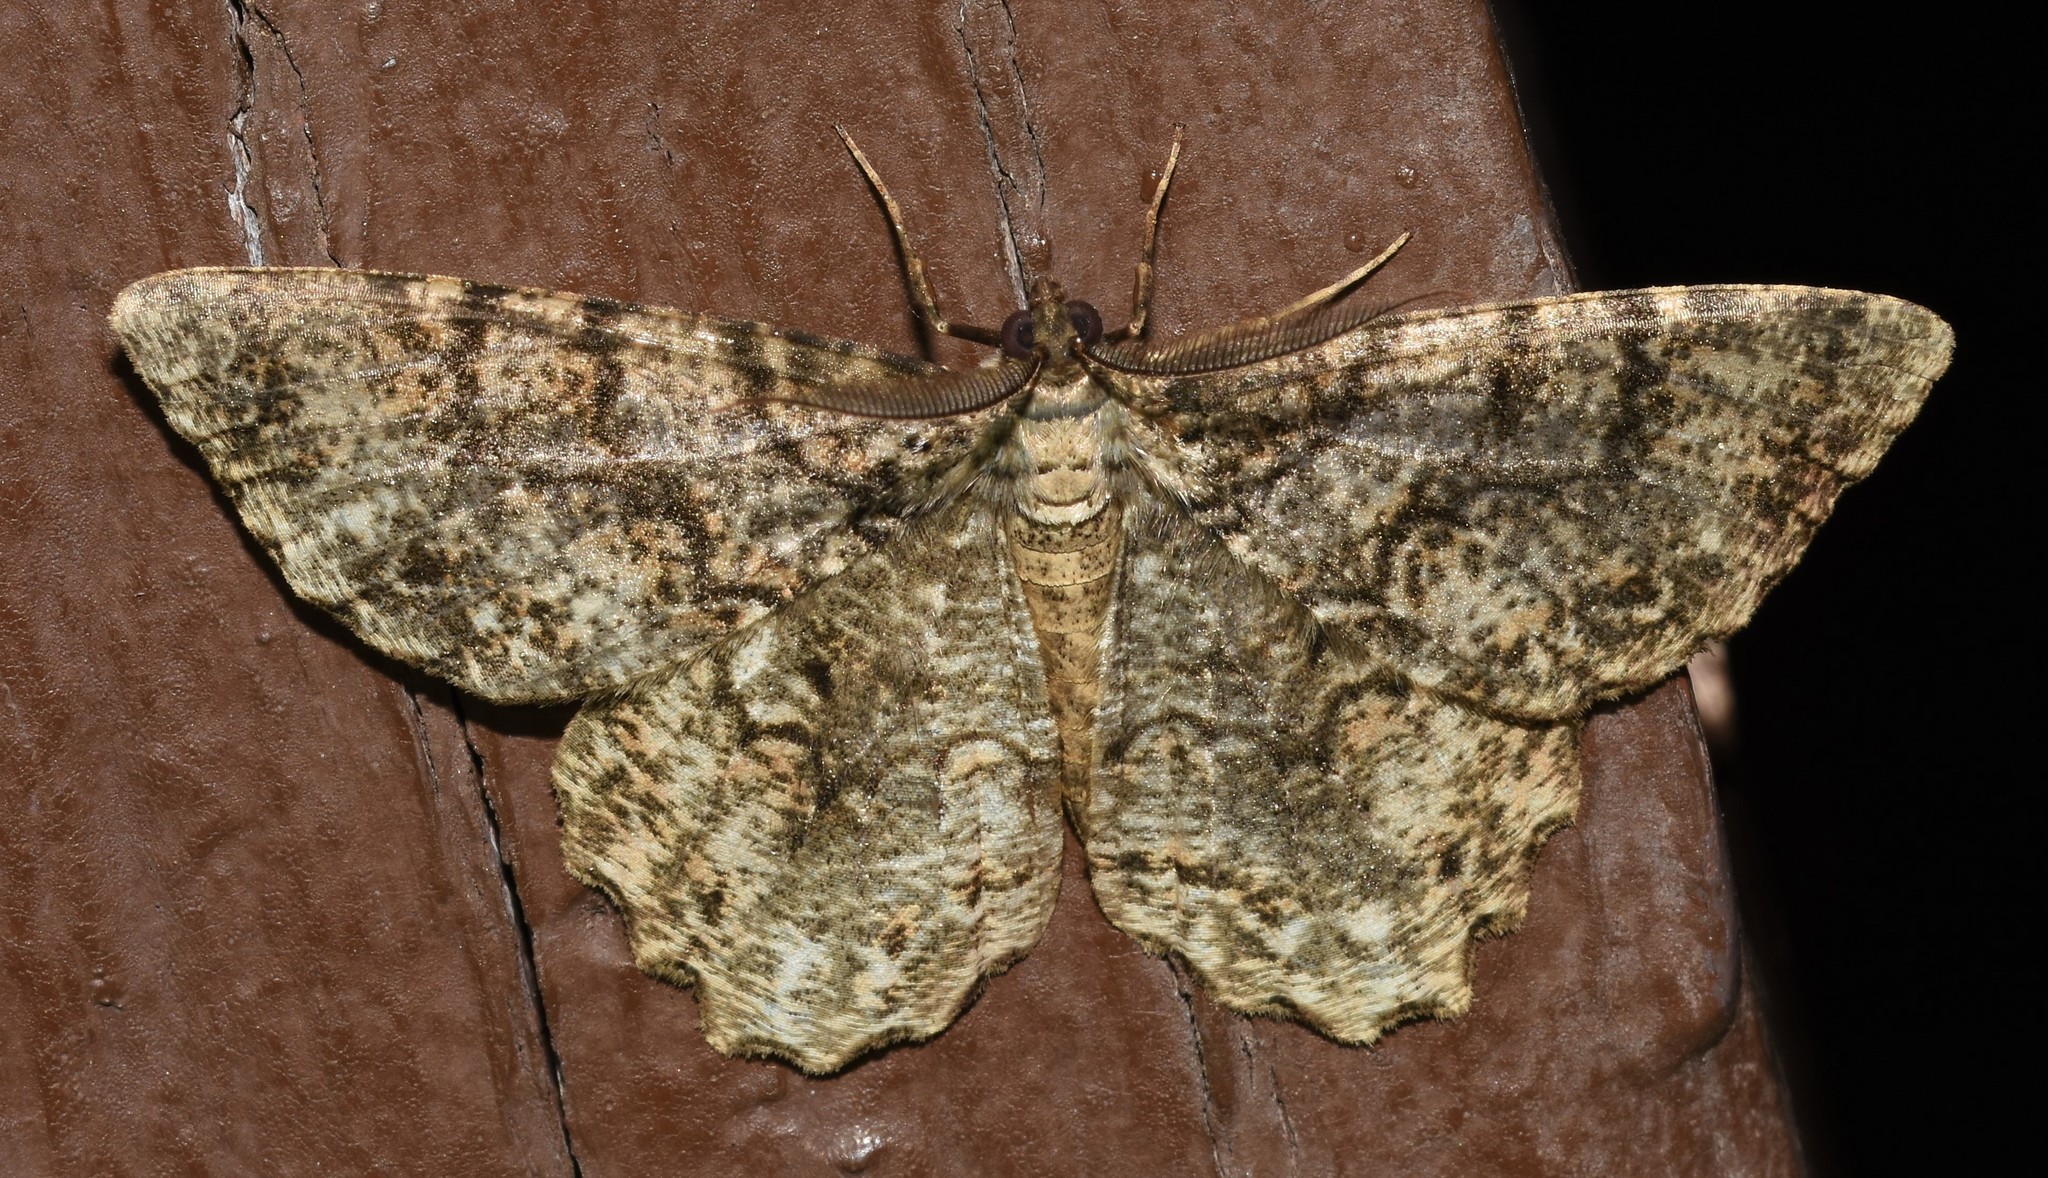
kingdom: Animalia
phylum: Arthropoda
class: Insecta
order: Lepidoptera
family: Geometridae
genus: Epimecis
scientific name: Epimecis hortaria
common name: Tulip-tree beauty
